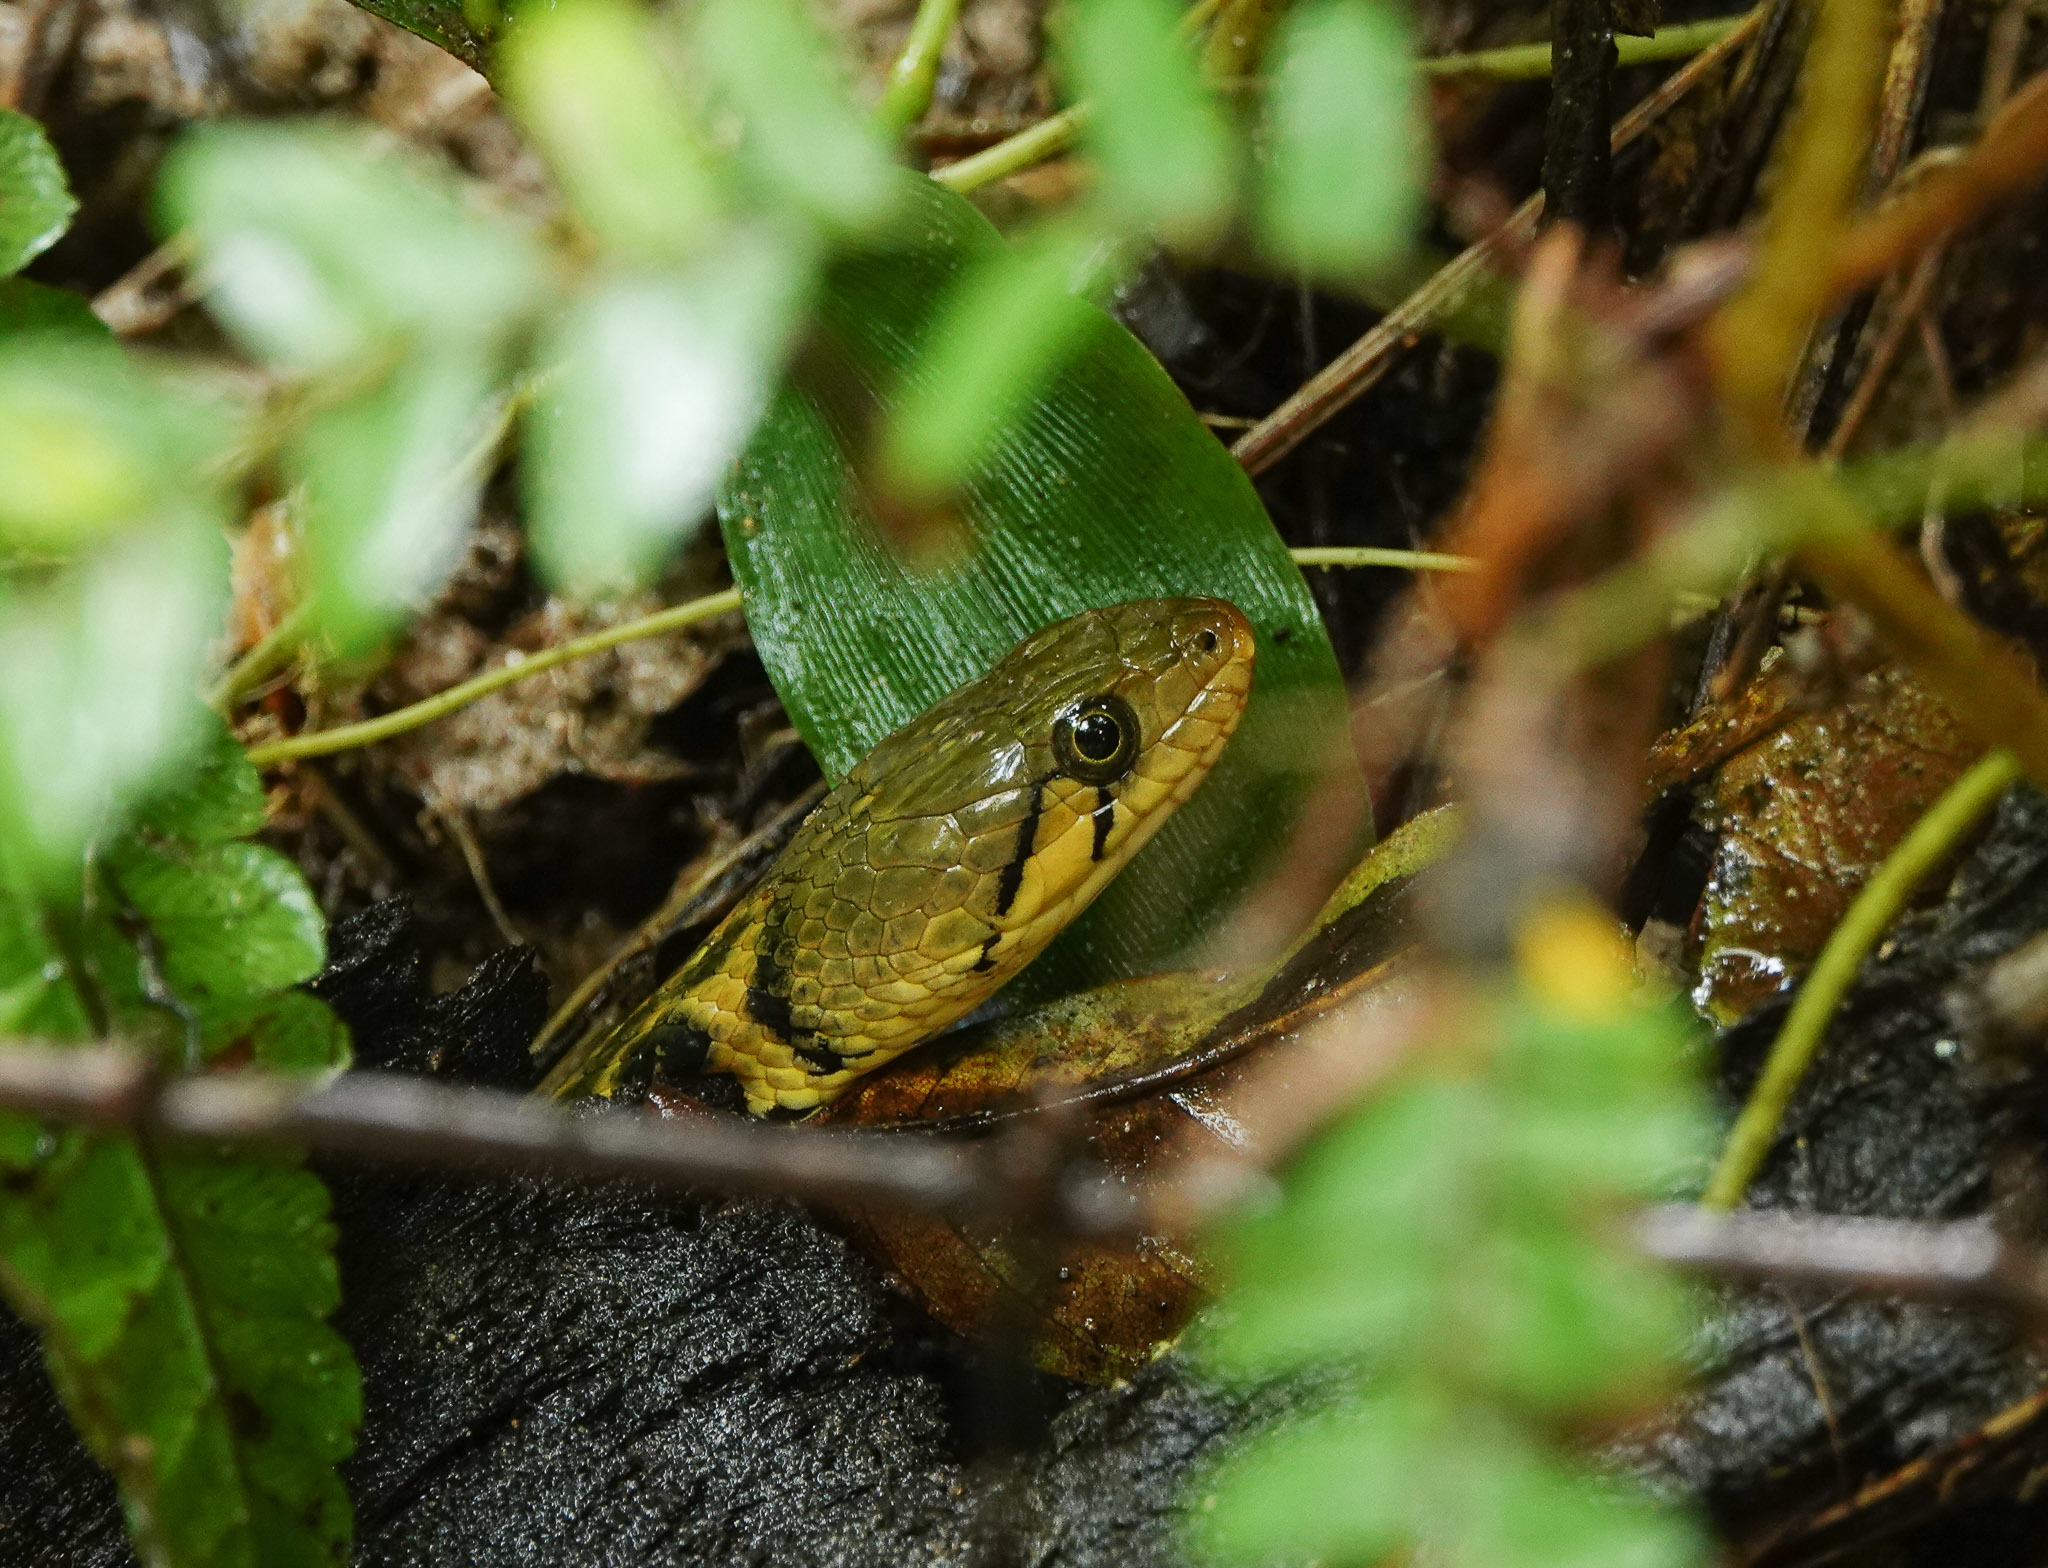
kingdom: Animalia
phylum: Chordata
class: Squamata
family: Colubridae
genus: Fowlea
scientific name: Fowlea piscator
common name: Asiatic water snake
